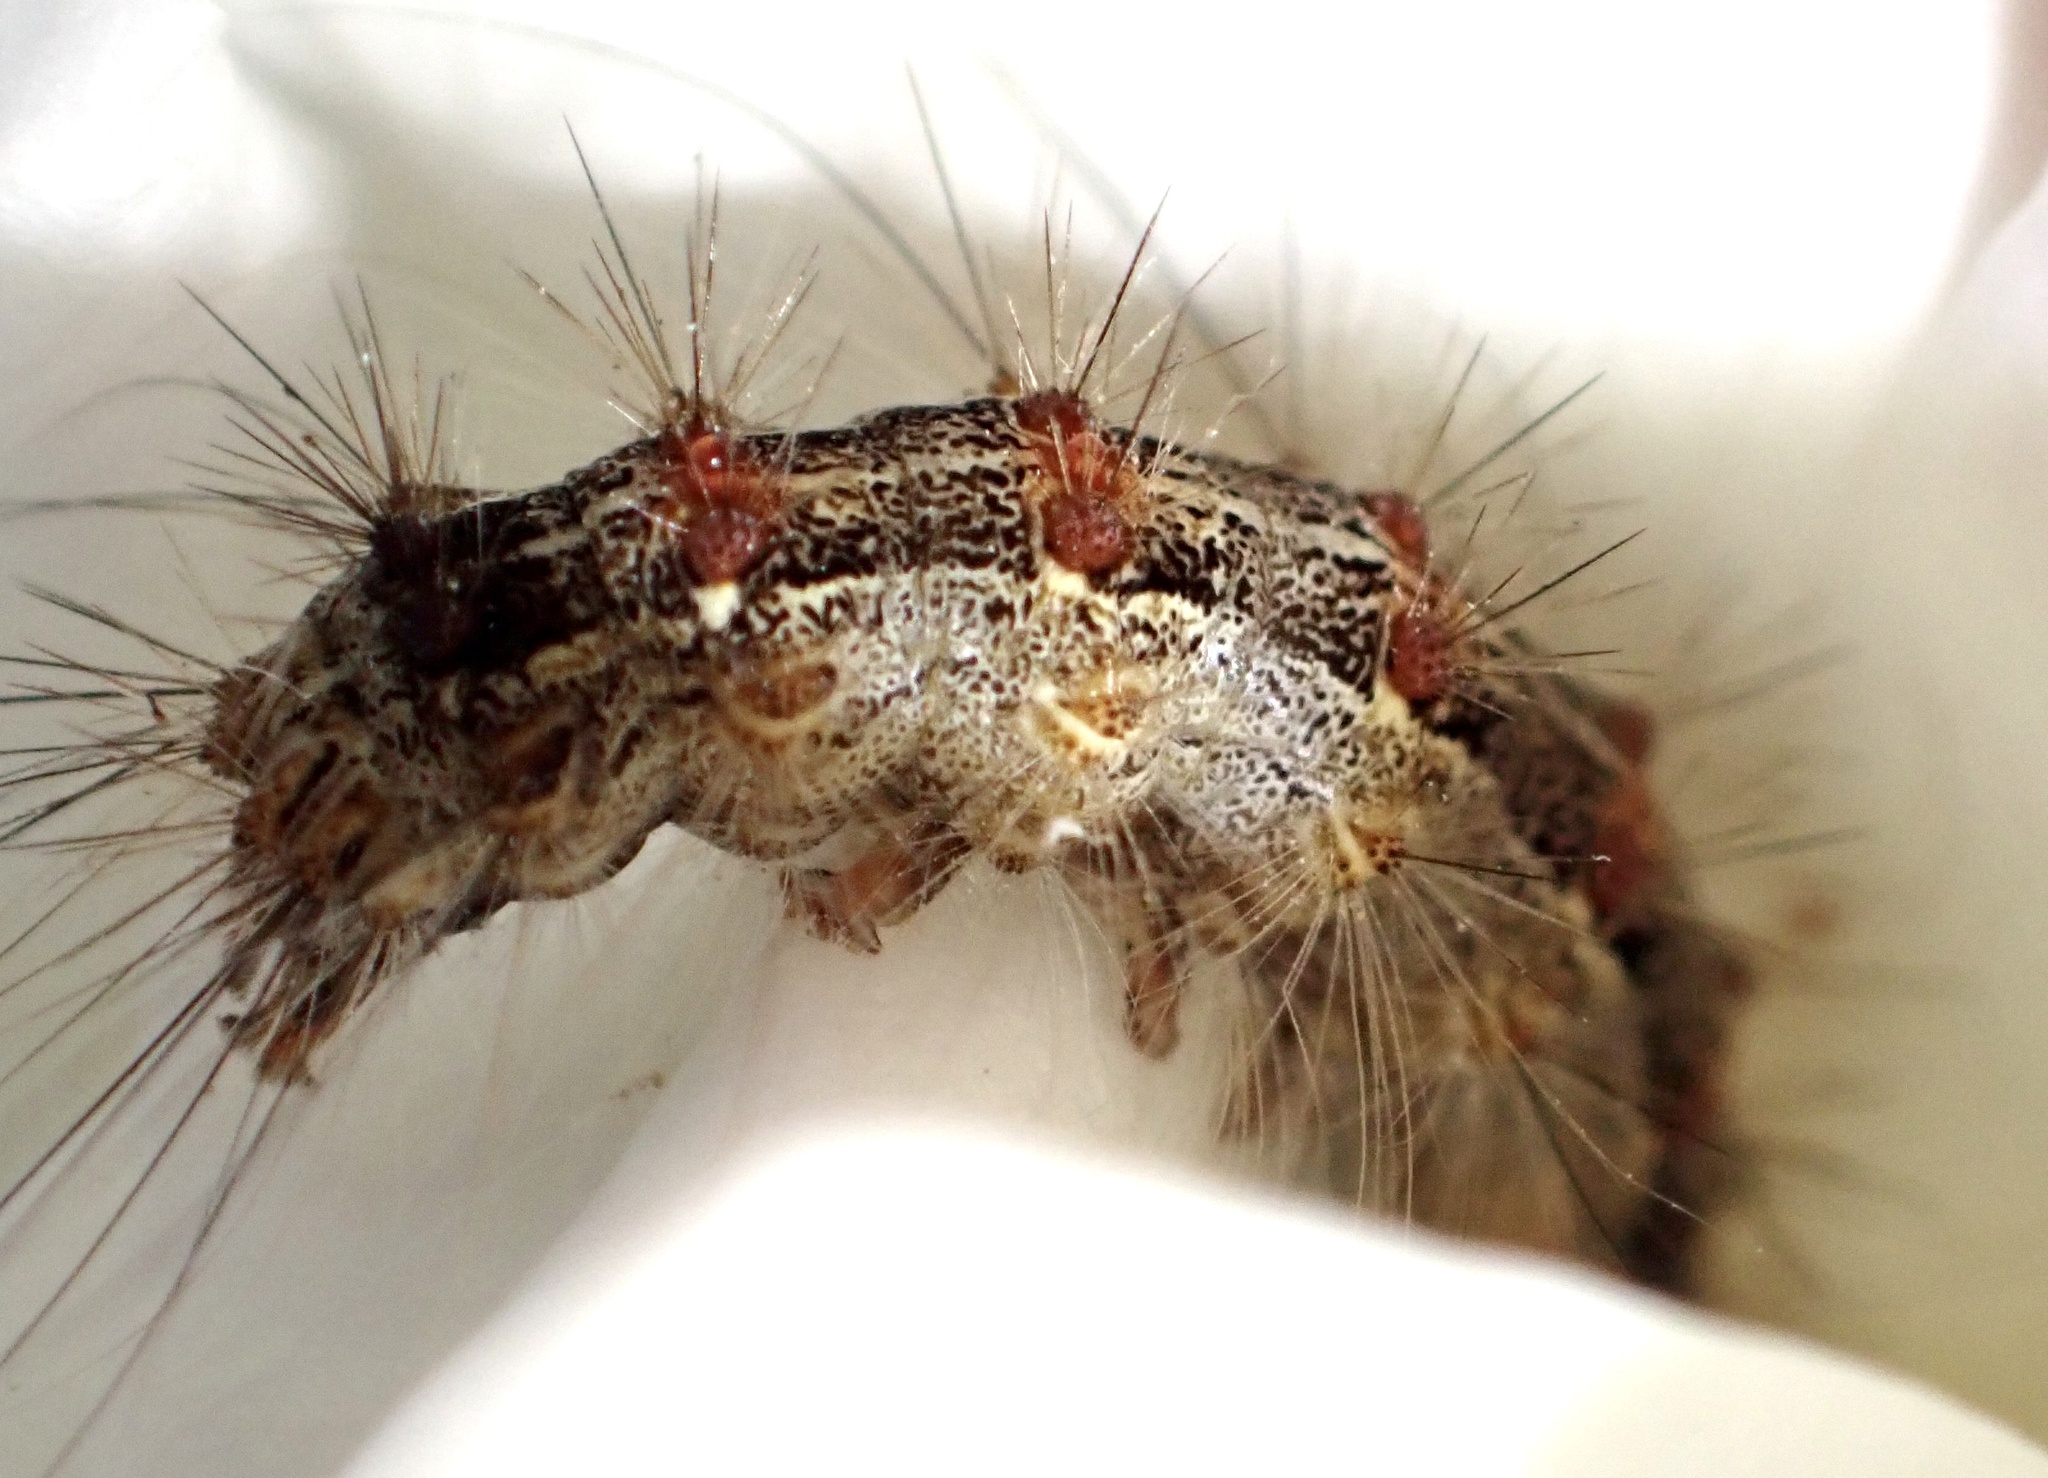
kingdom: Animalia
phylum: Arthropoda
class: Insecta
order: Lepidoptera
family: Erebidae
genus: Lymantria
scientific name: Lymantria dispar
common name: Gypsy moth
